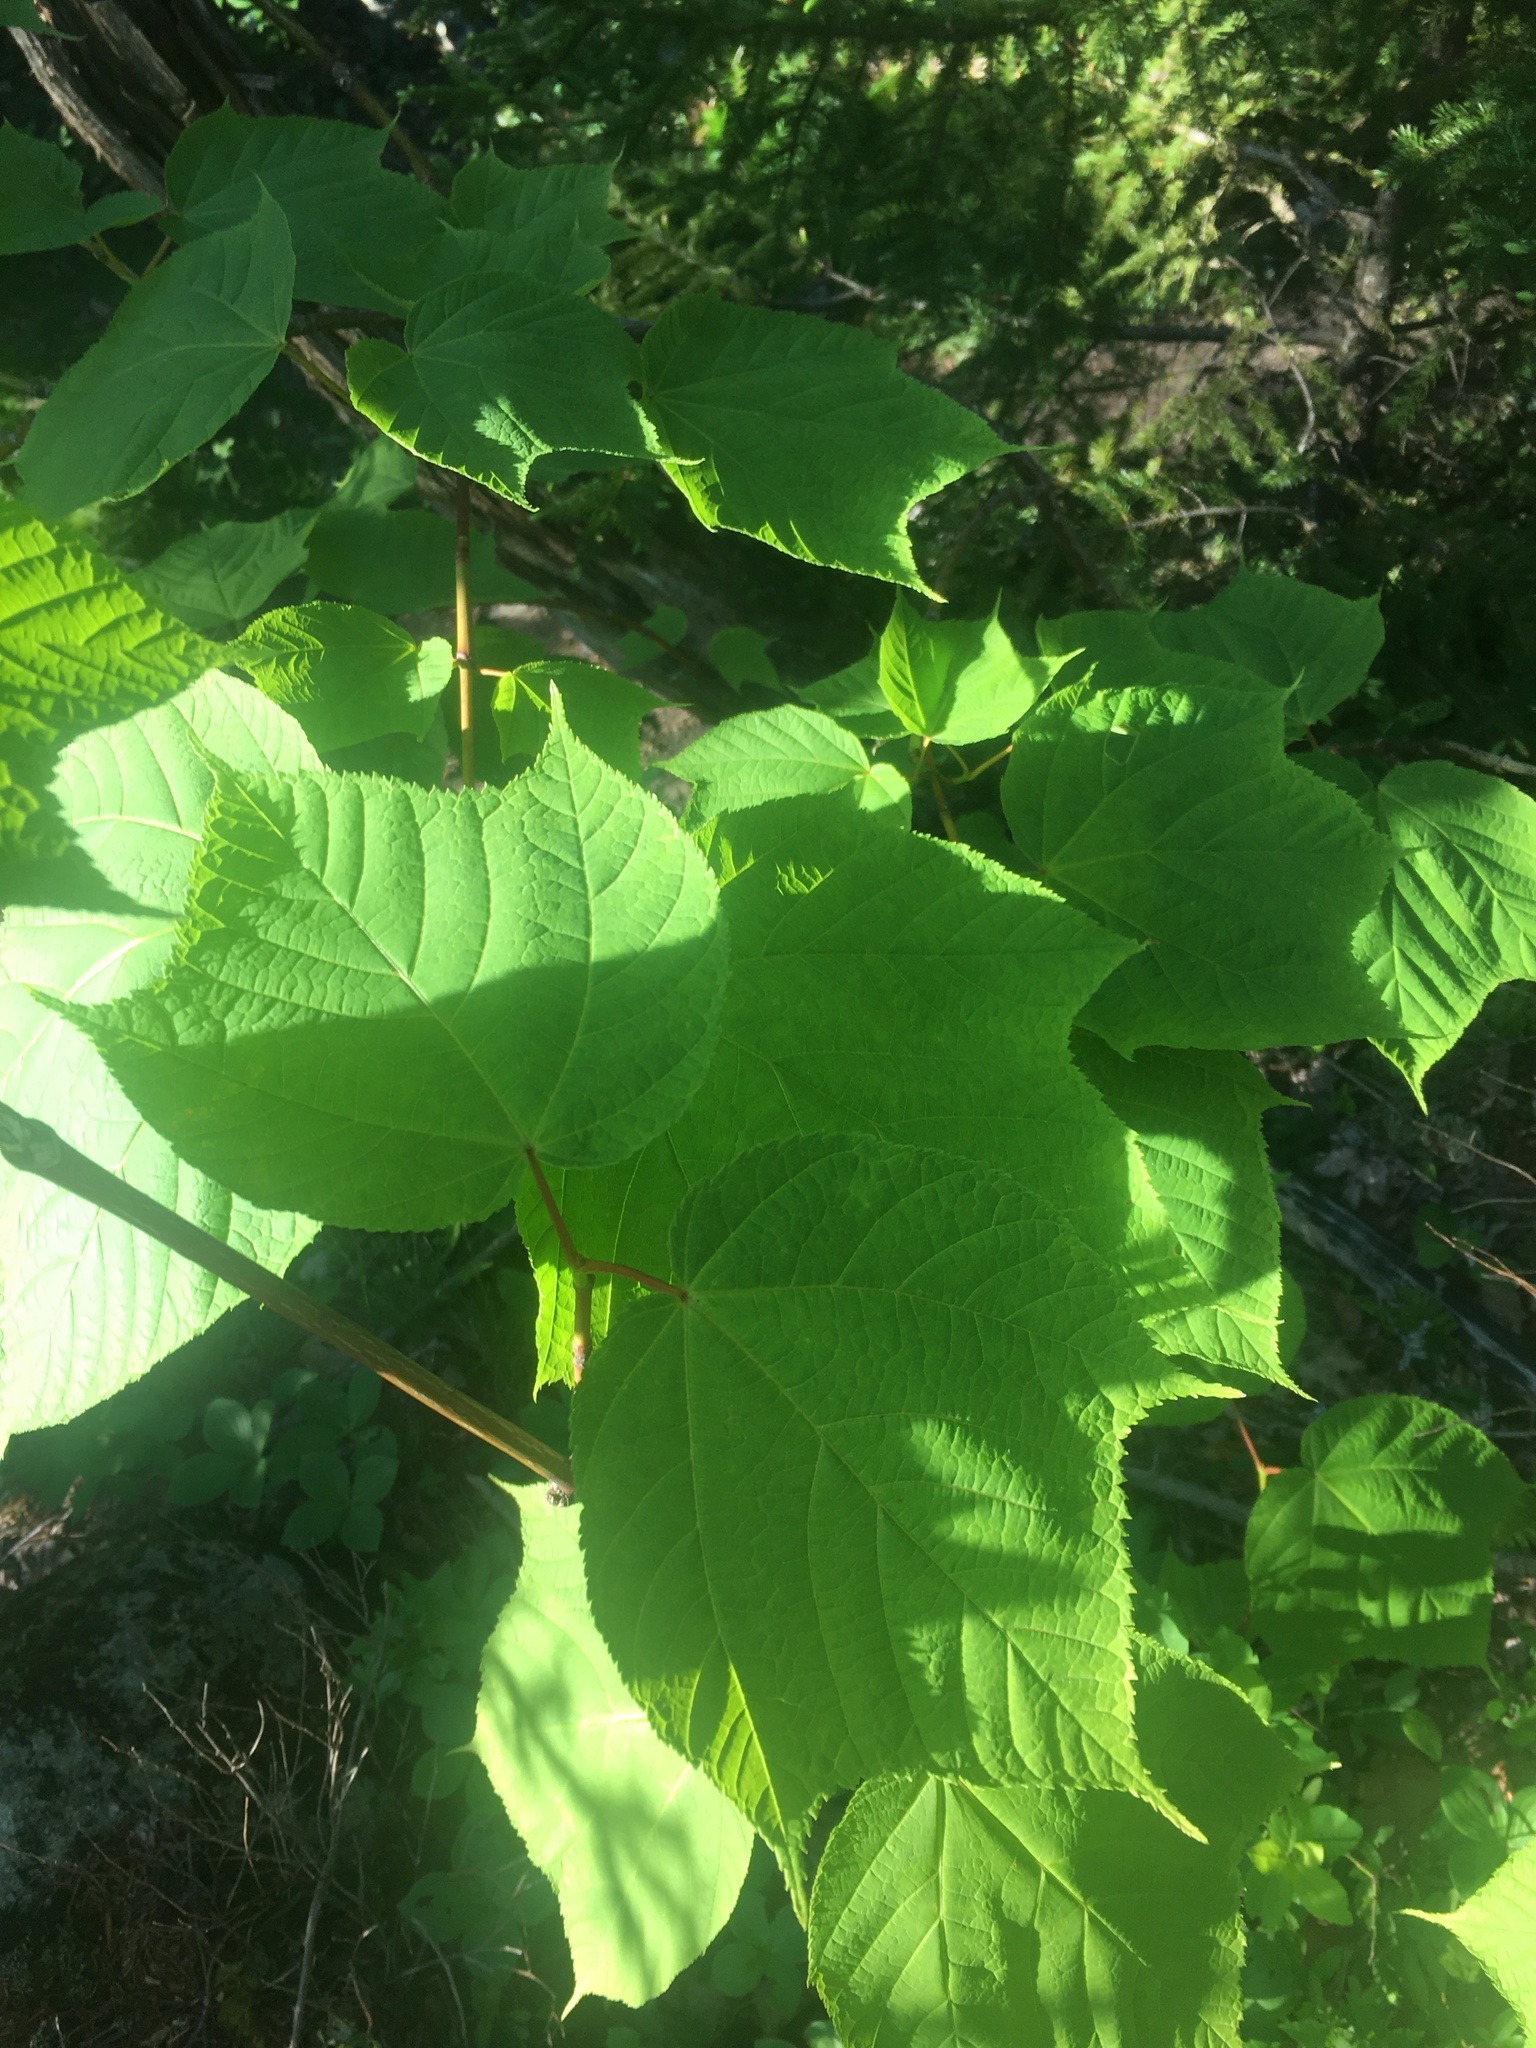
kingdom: Plantae
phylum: Tracheophyta
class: Magnoliopsida
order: Sapindales
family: Sapindaceae
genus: Acer
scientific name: Acer pensylvanicum
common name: Moosewood
